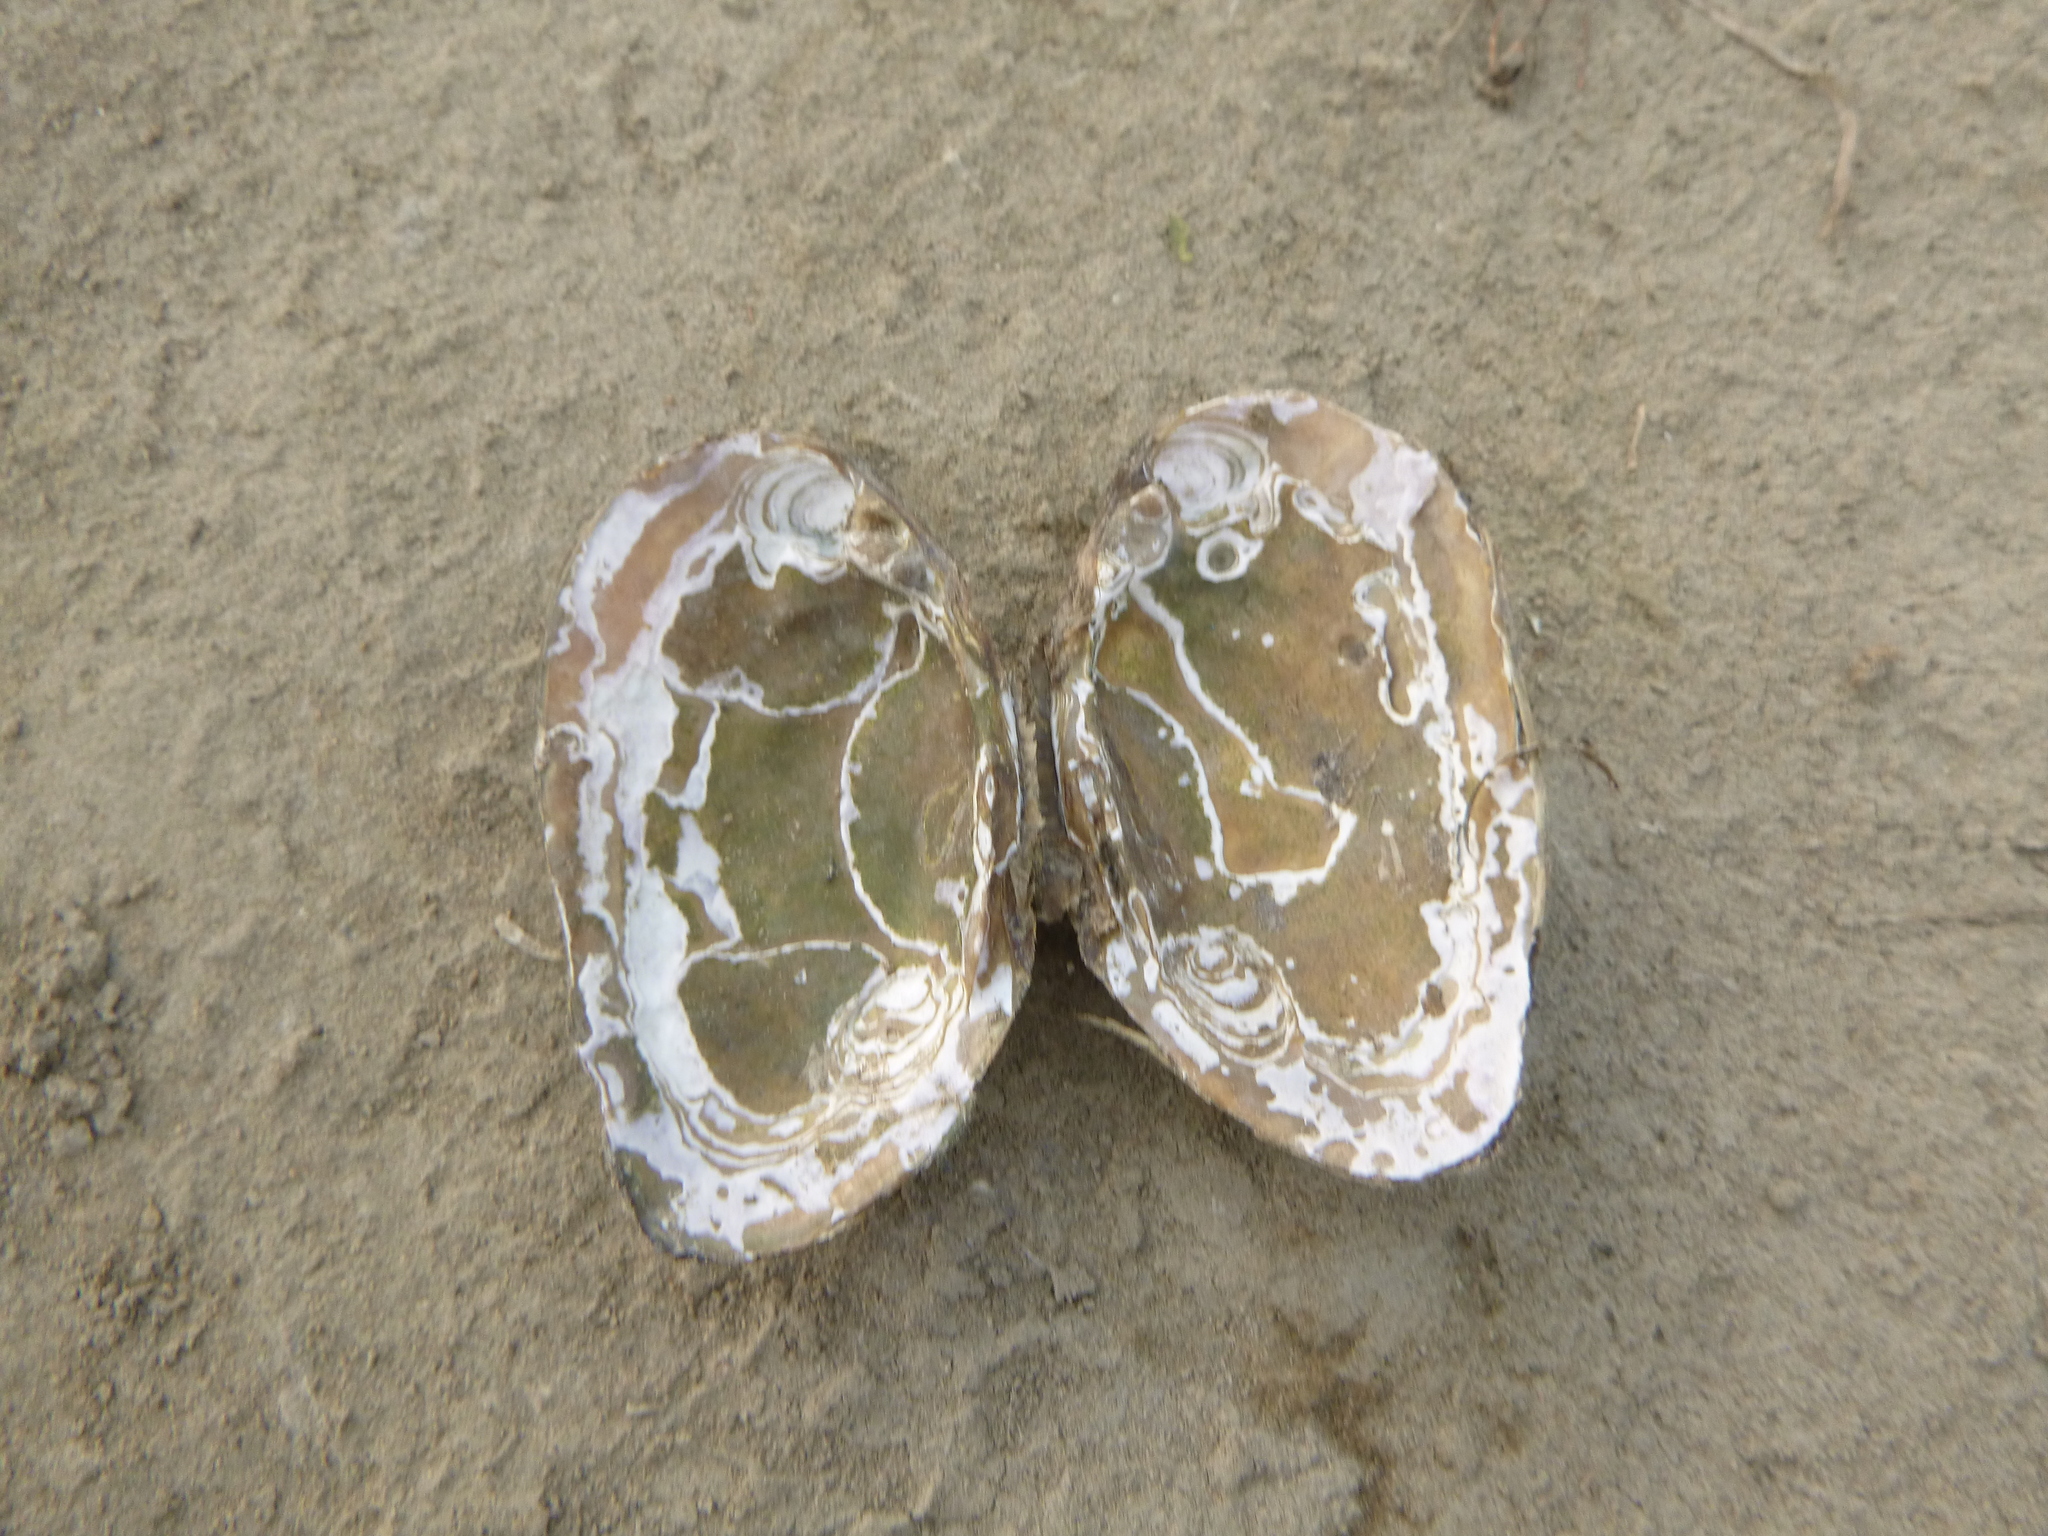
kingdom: Animalia
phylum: Mollusca
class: Bivalvia
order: Unionida
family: Unionidae
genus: Elliptio
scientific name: Elliptio complanata
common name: Eastern elliptio
